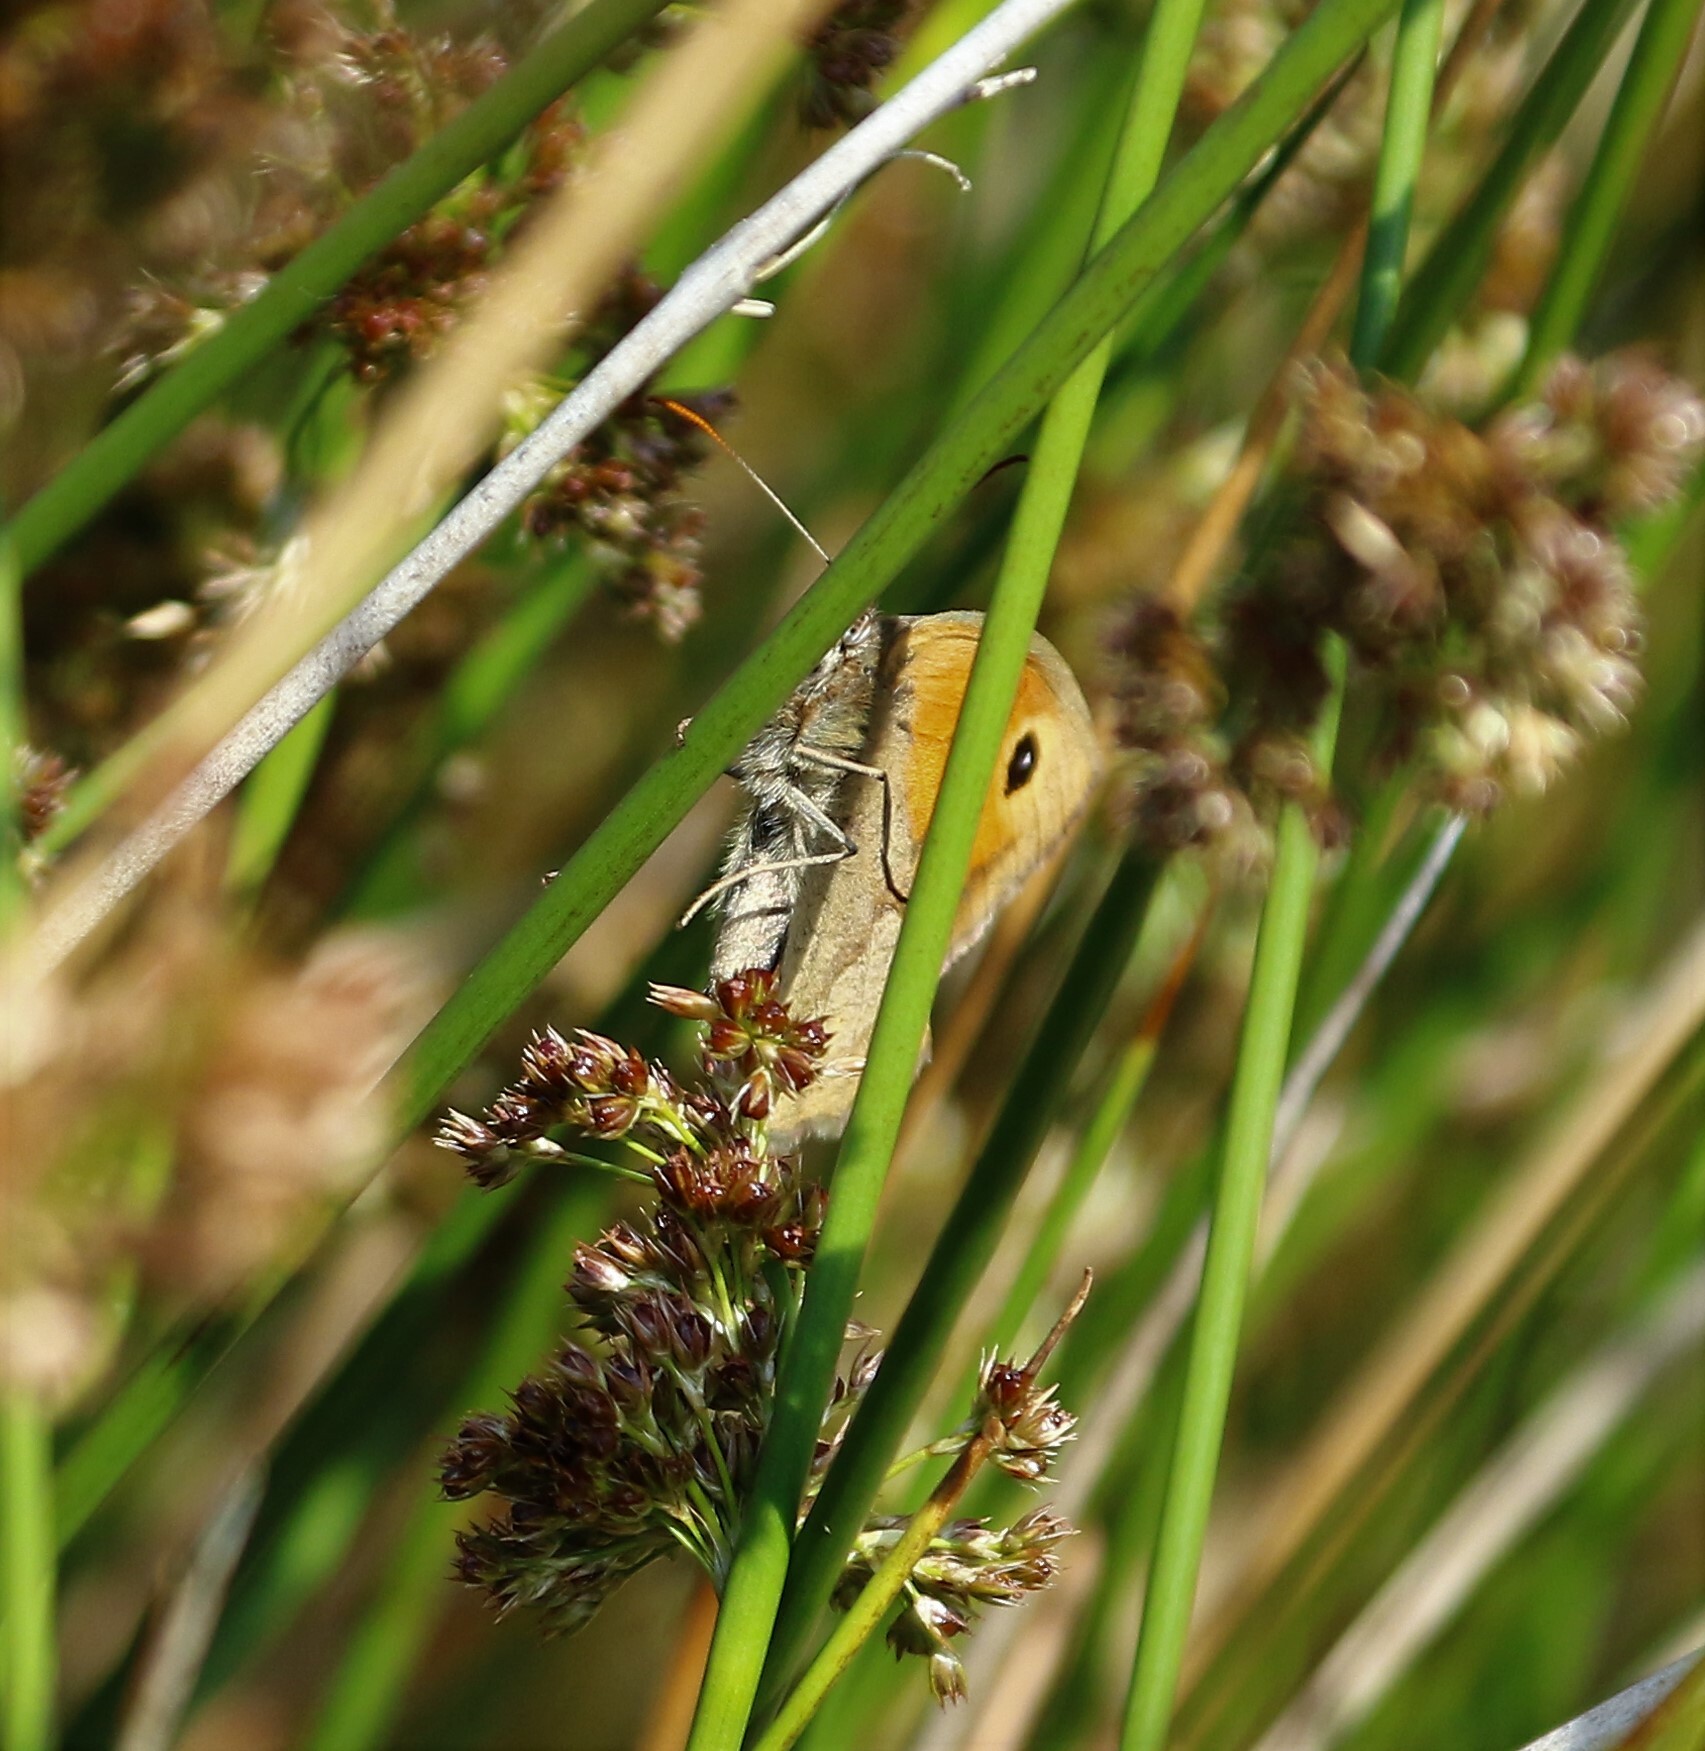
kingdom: Animalia
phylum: Arthropoda
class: Insecta
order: Lepidoptera
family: Nymphalidae
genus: Maniola
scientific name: Maniola jurtina
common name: Meadow brown
